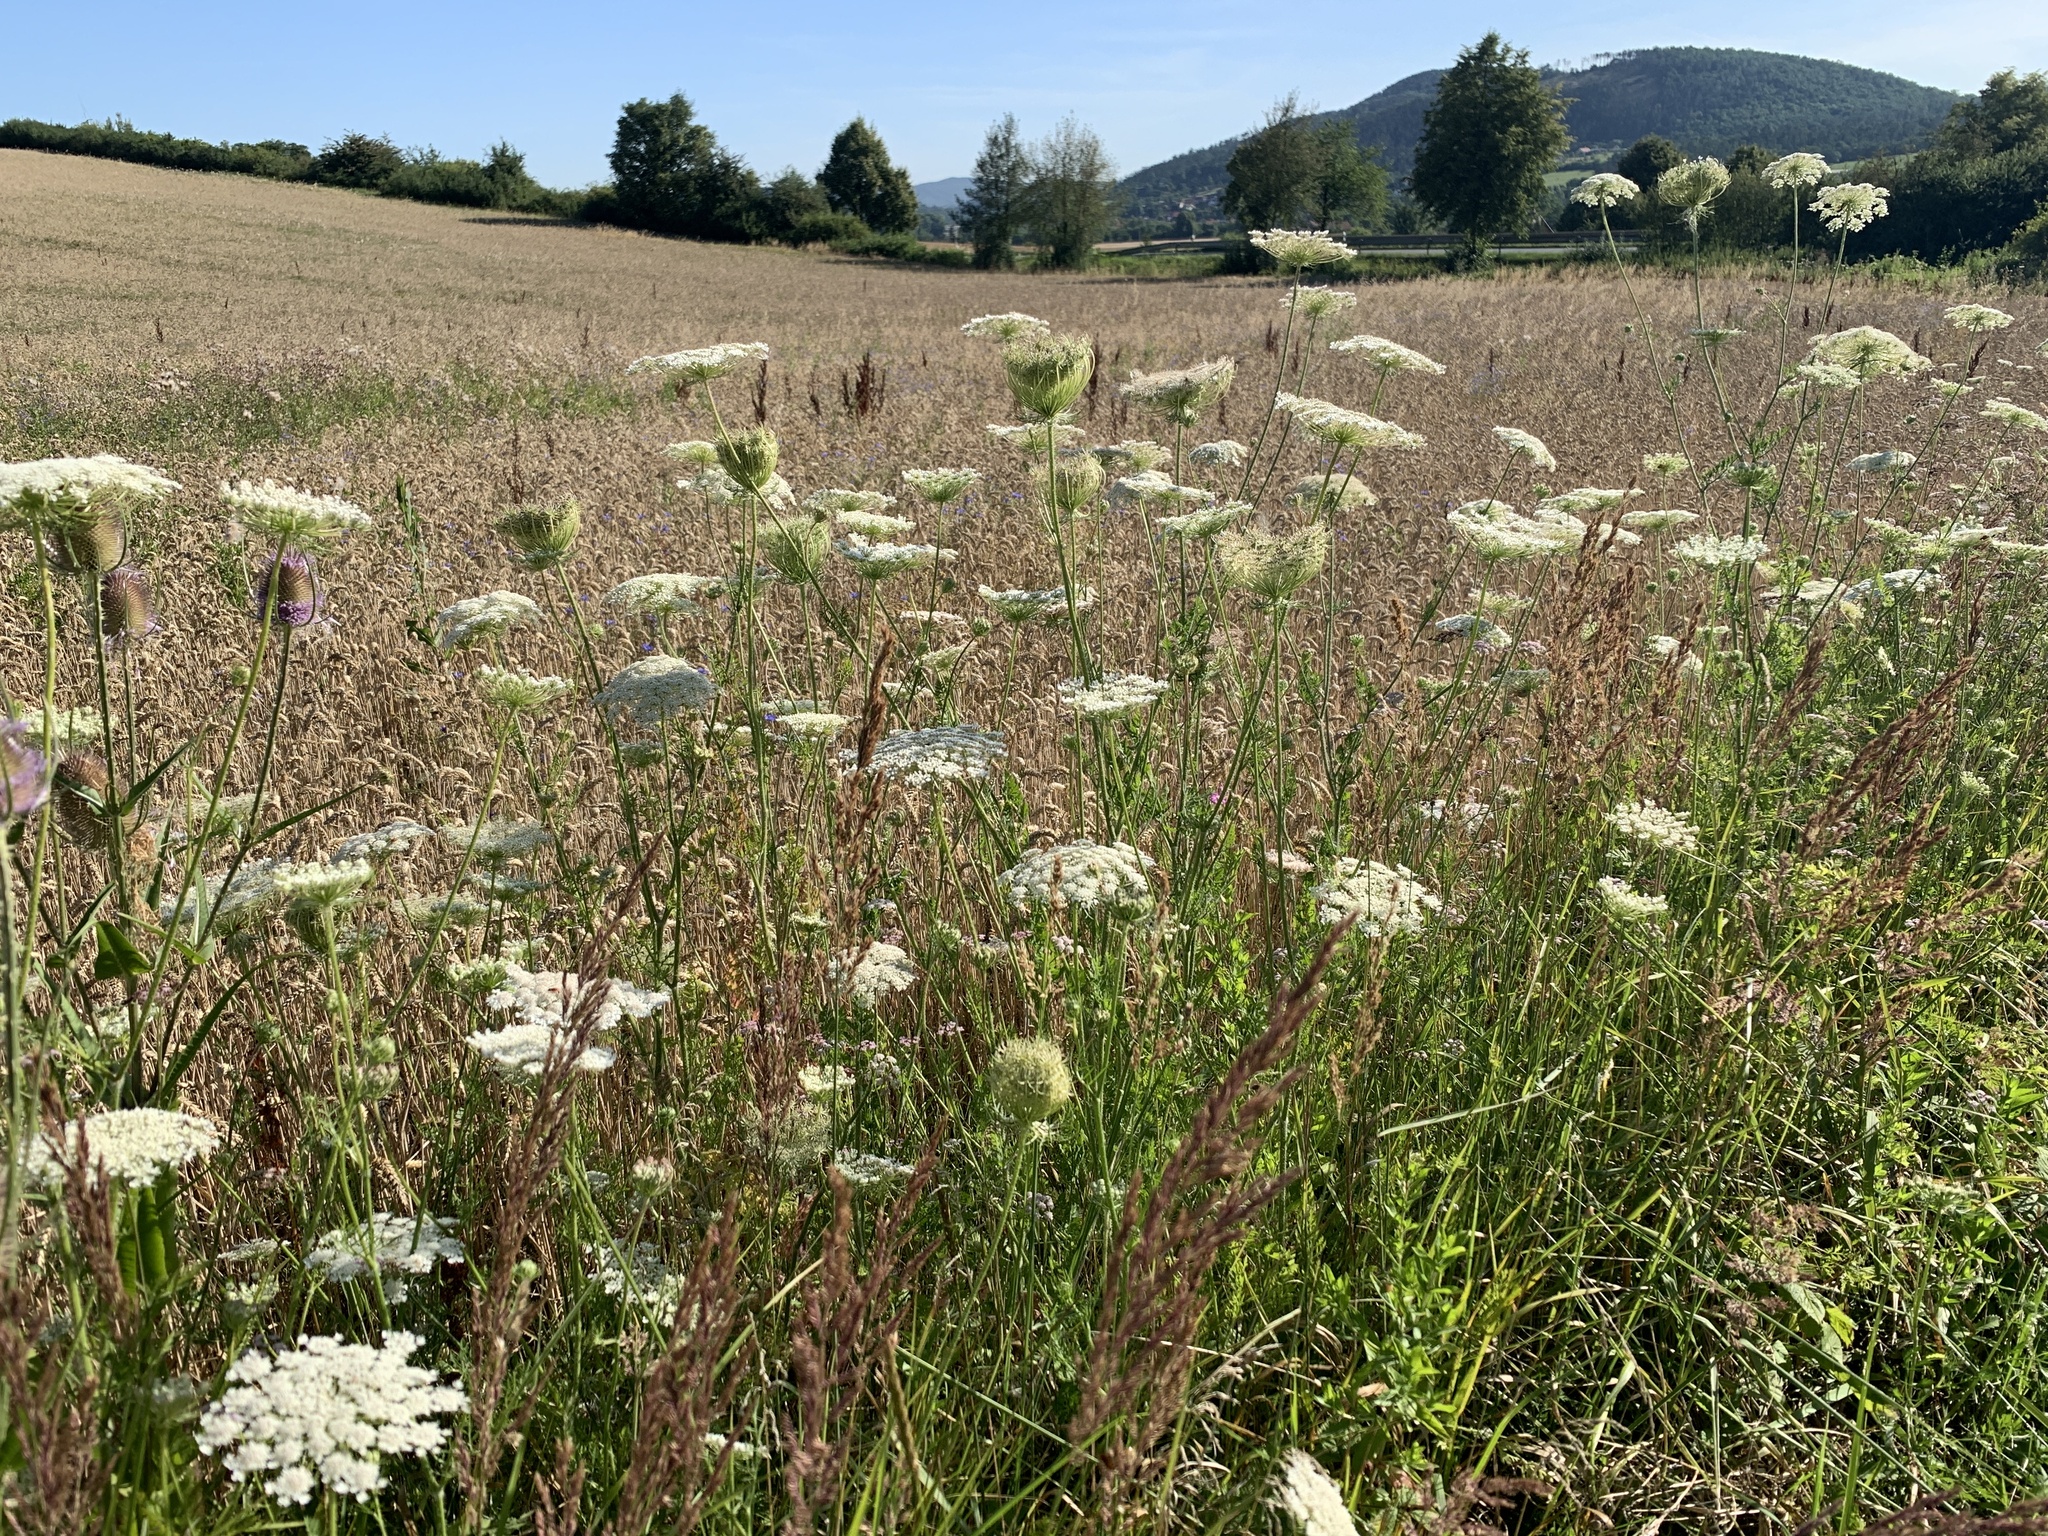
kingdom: Plantae
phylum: Tracheophyta
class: Magnoliopsida
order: Apiales
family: Apiaceae
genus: Daucus
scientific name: Daucus carota
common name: Wild carrot
